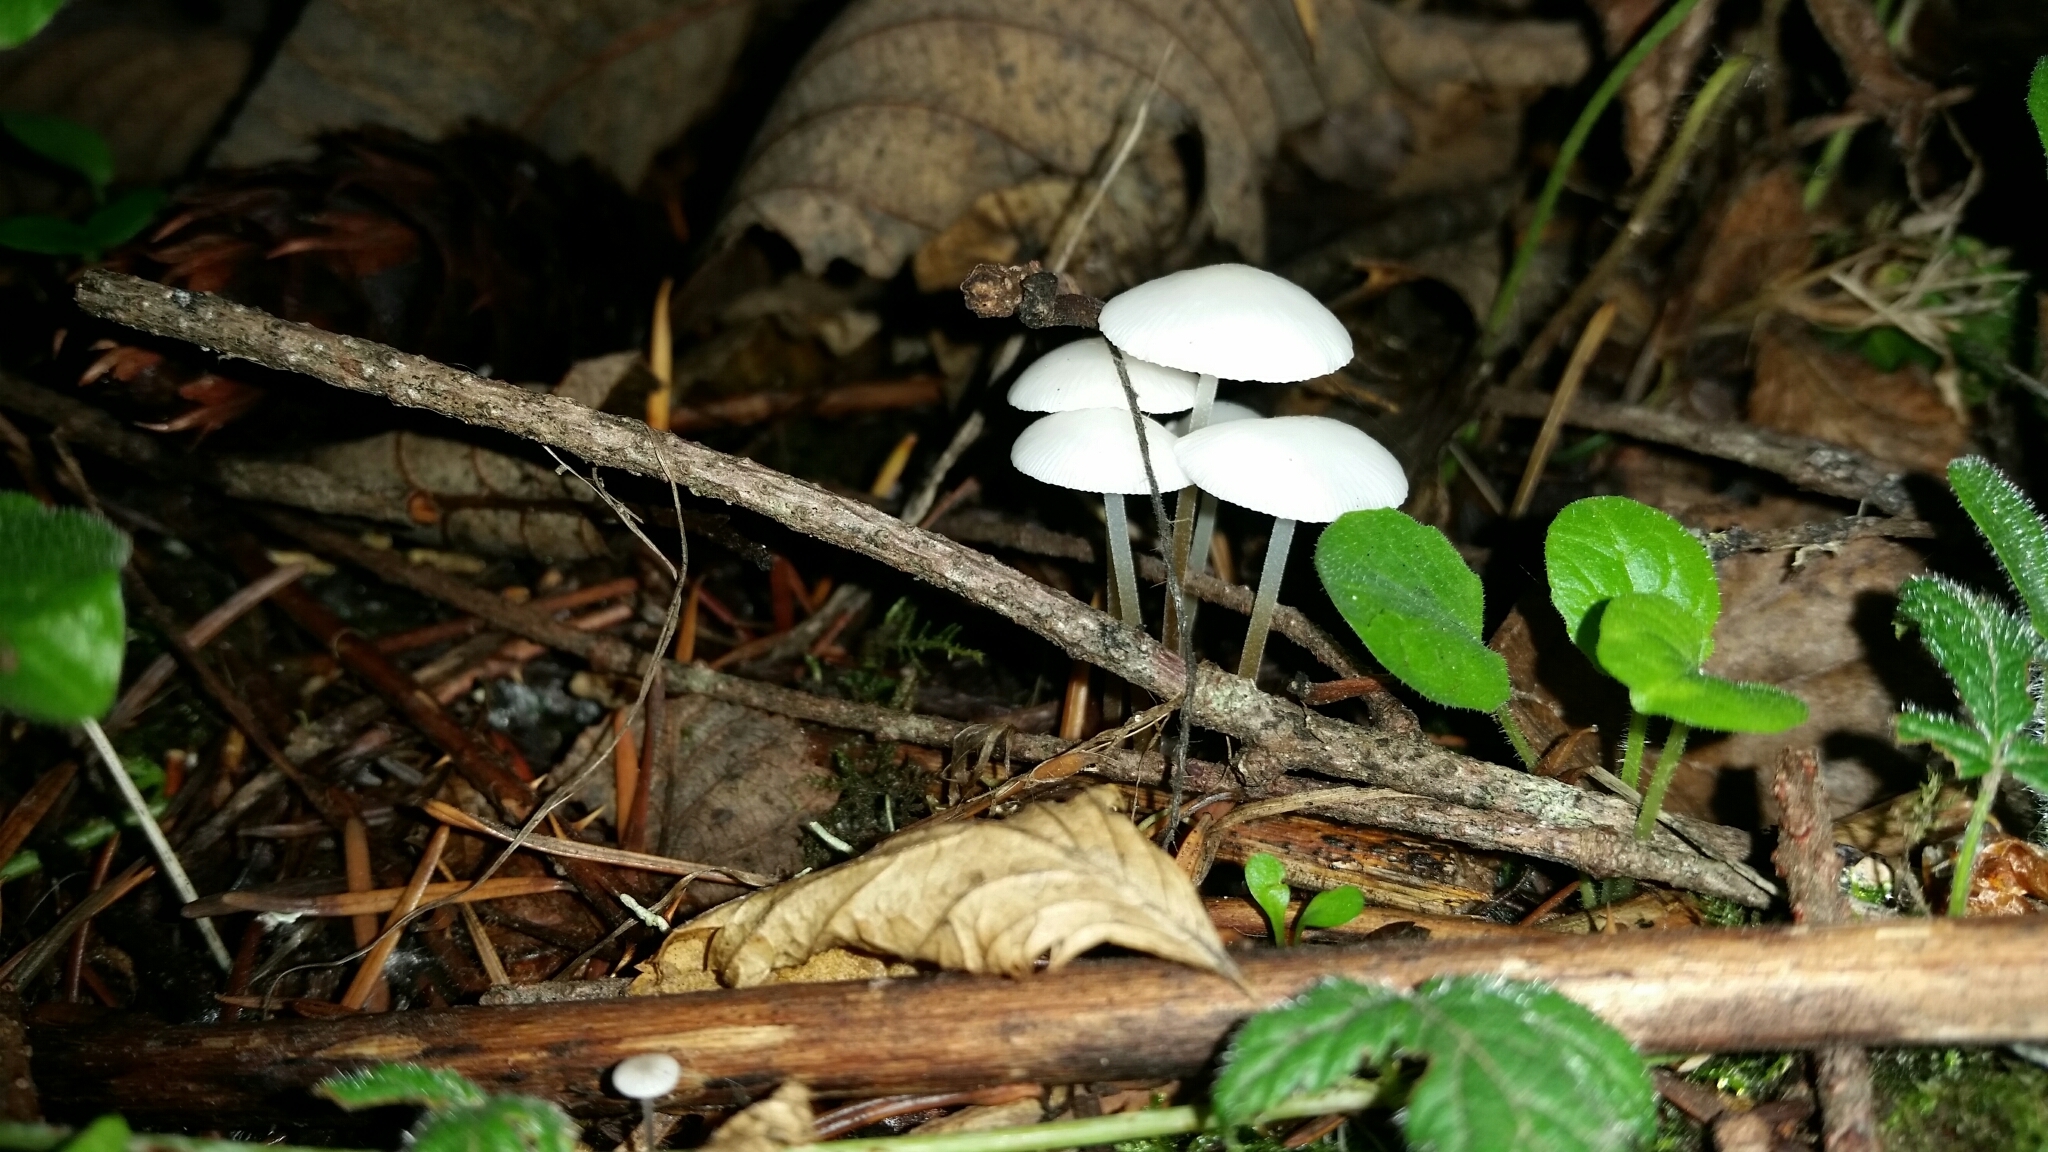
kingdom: Fungi
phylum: Basidiomycota
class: Agaricomycetes
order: Agaricales
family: Physalacriaceae
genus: Strobilurus
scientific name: Strobilurus trullisatus
